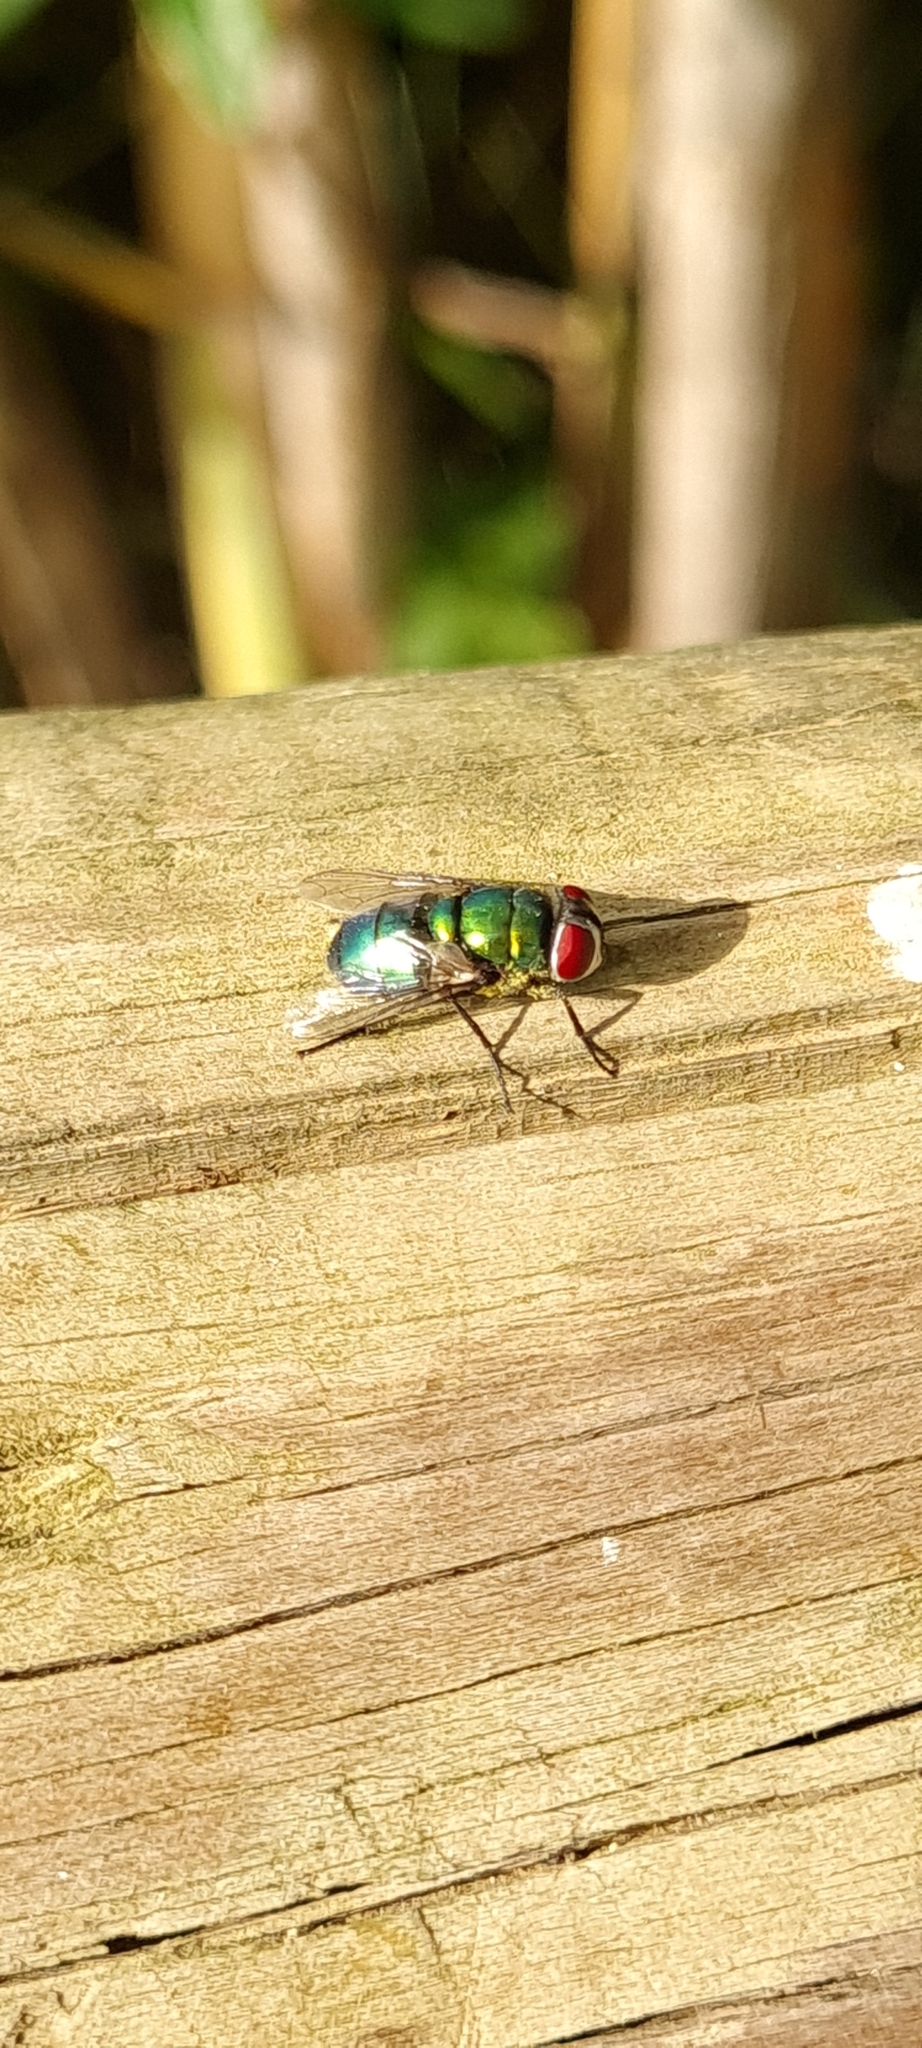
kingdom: Animalia
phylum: Arthropoda
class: Insecta
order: Diptera
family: Calliphoridae
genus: Chrysomya
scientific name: Chrysomya albiceps
